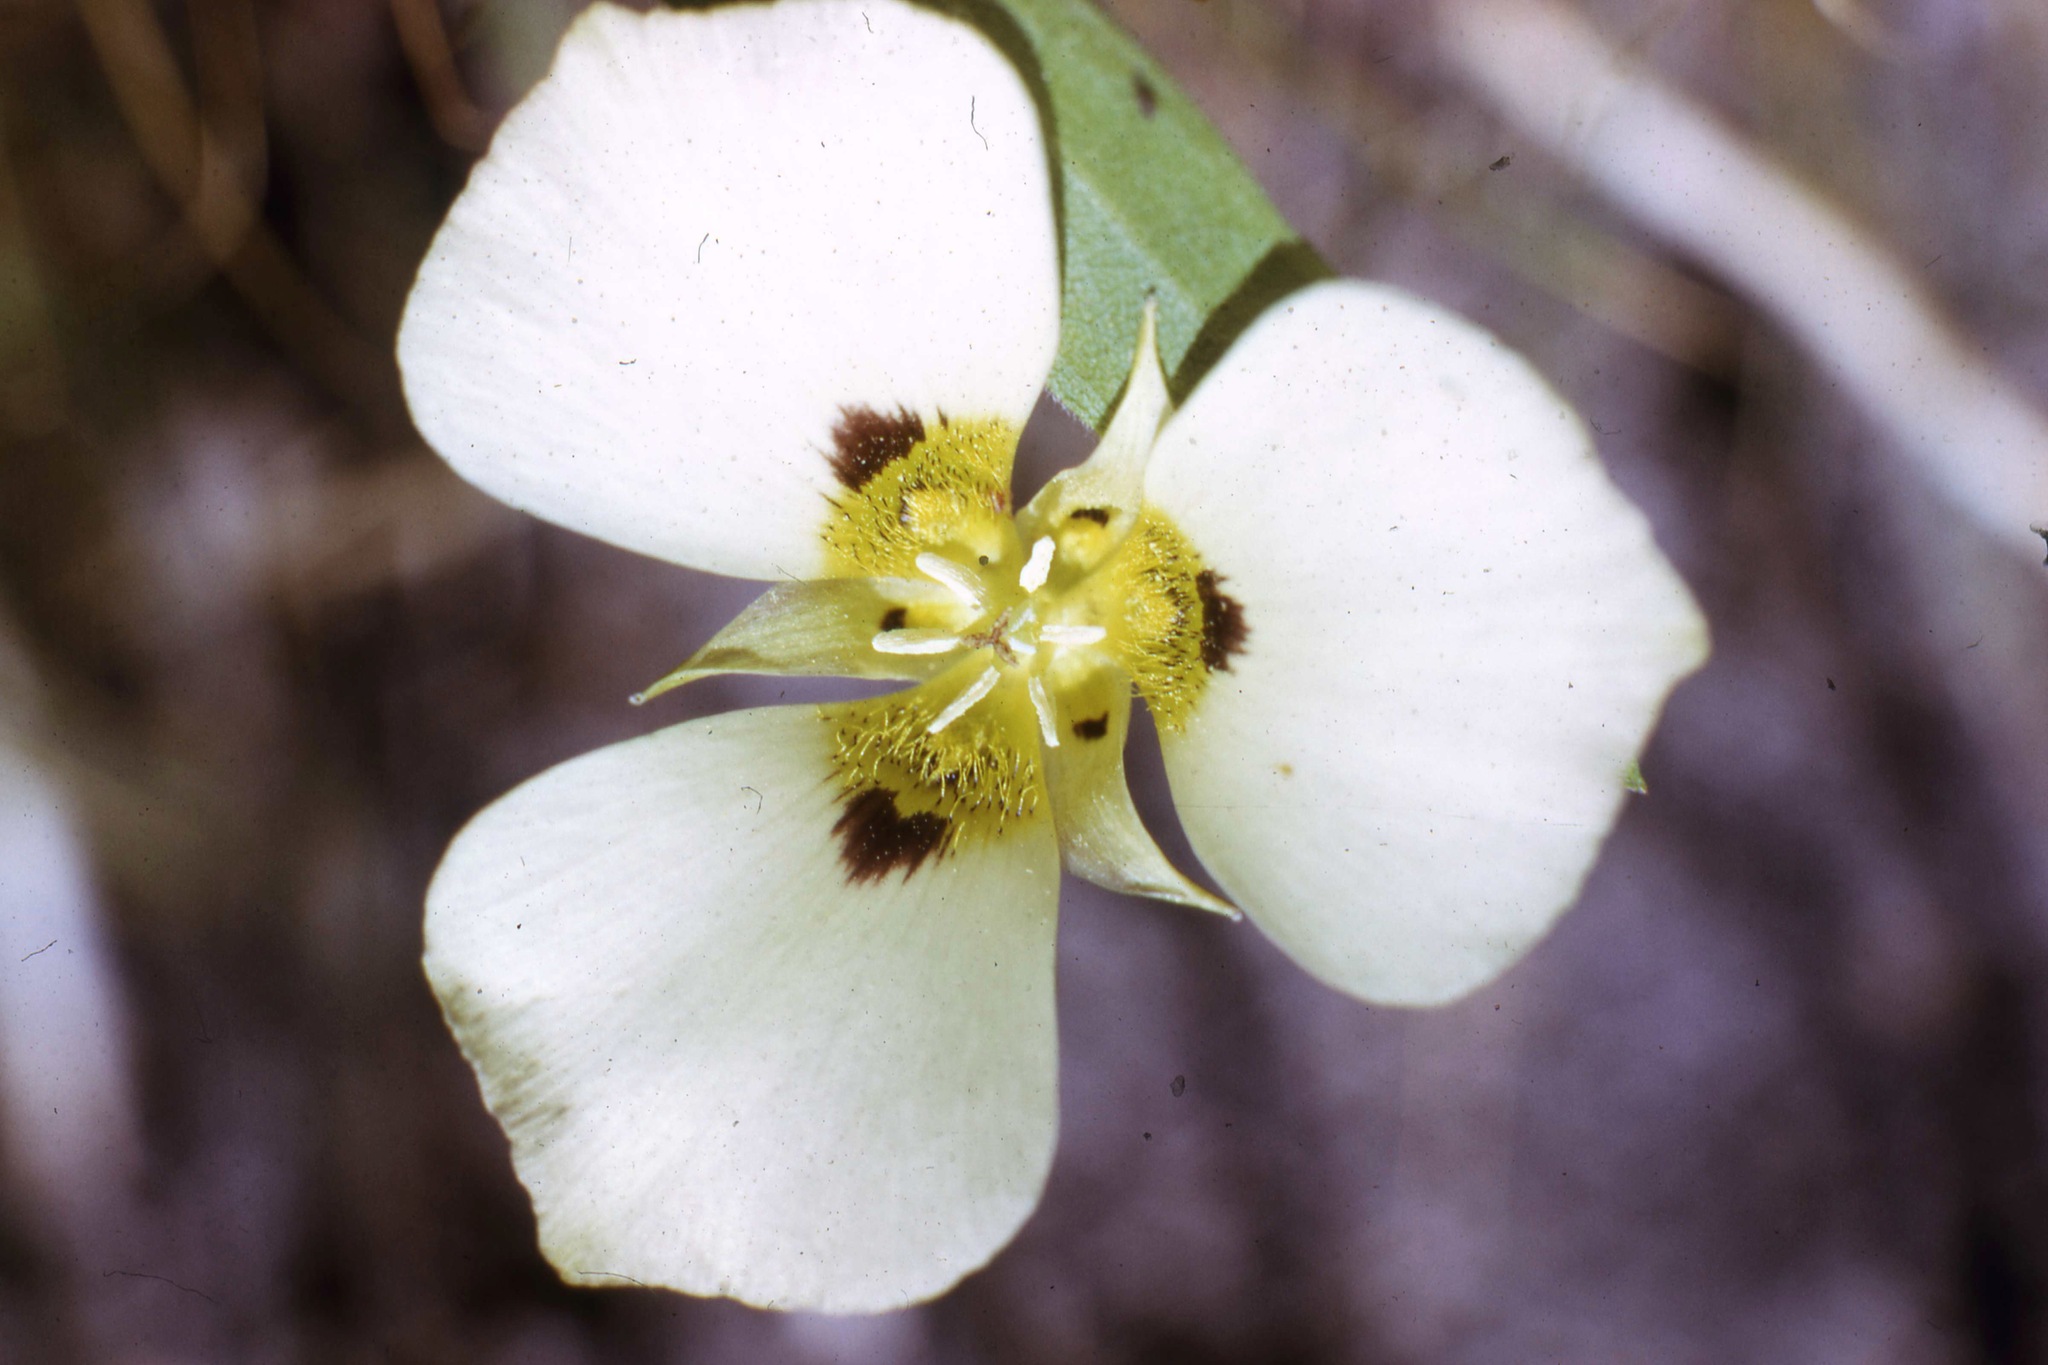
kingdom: Plantae
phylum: Tracheophyta
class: Liliopsida
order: Liliales
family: Liliaceae
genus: Calochortus
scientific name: Calochortus leichtlinii
